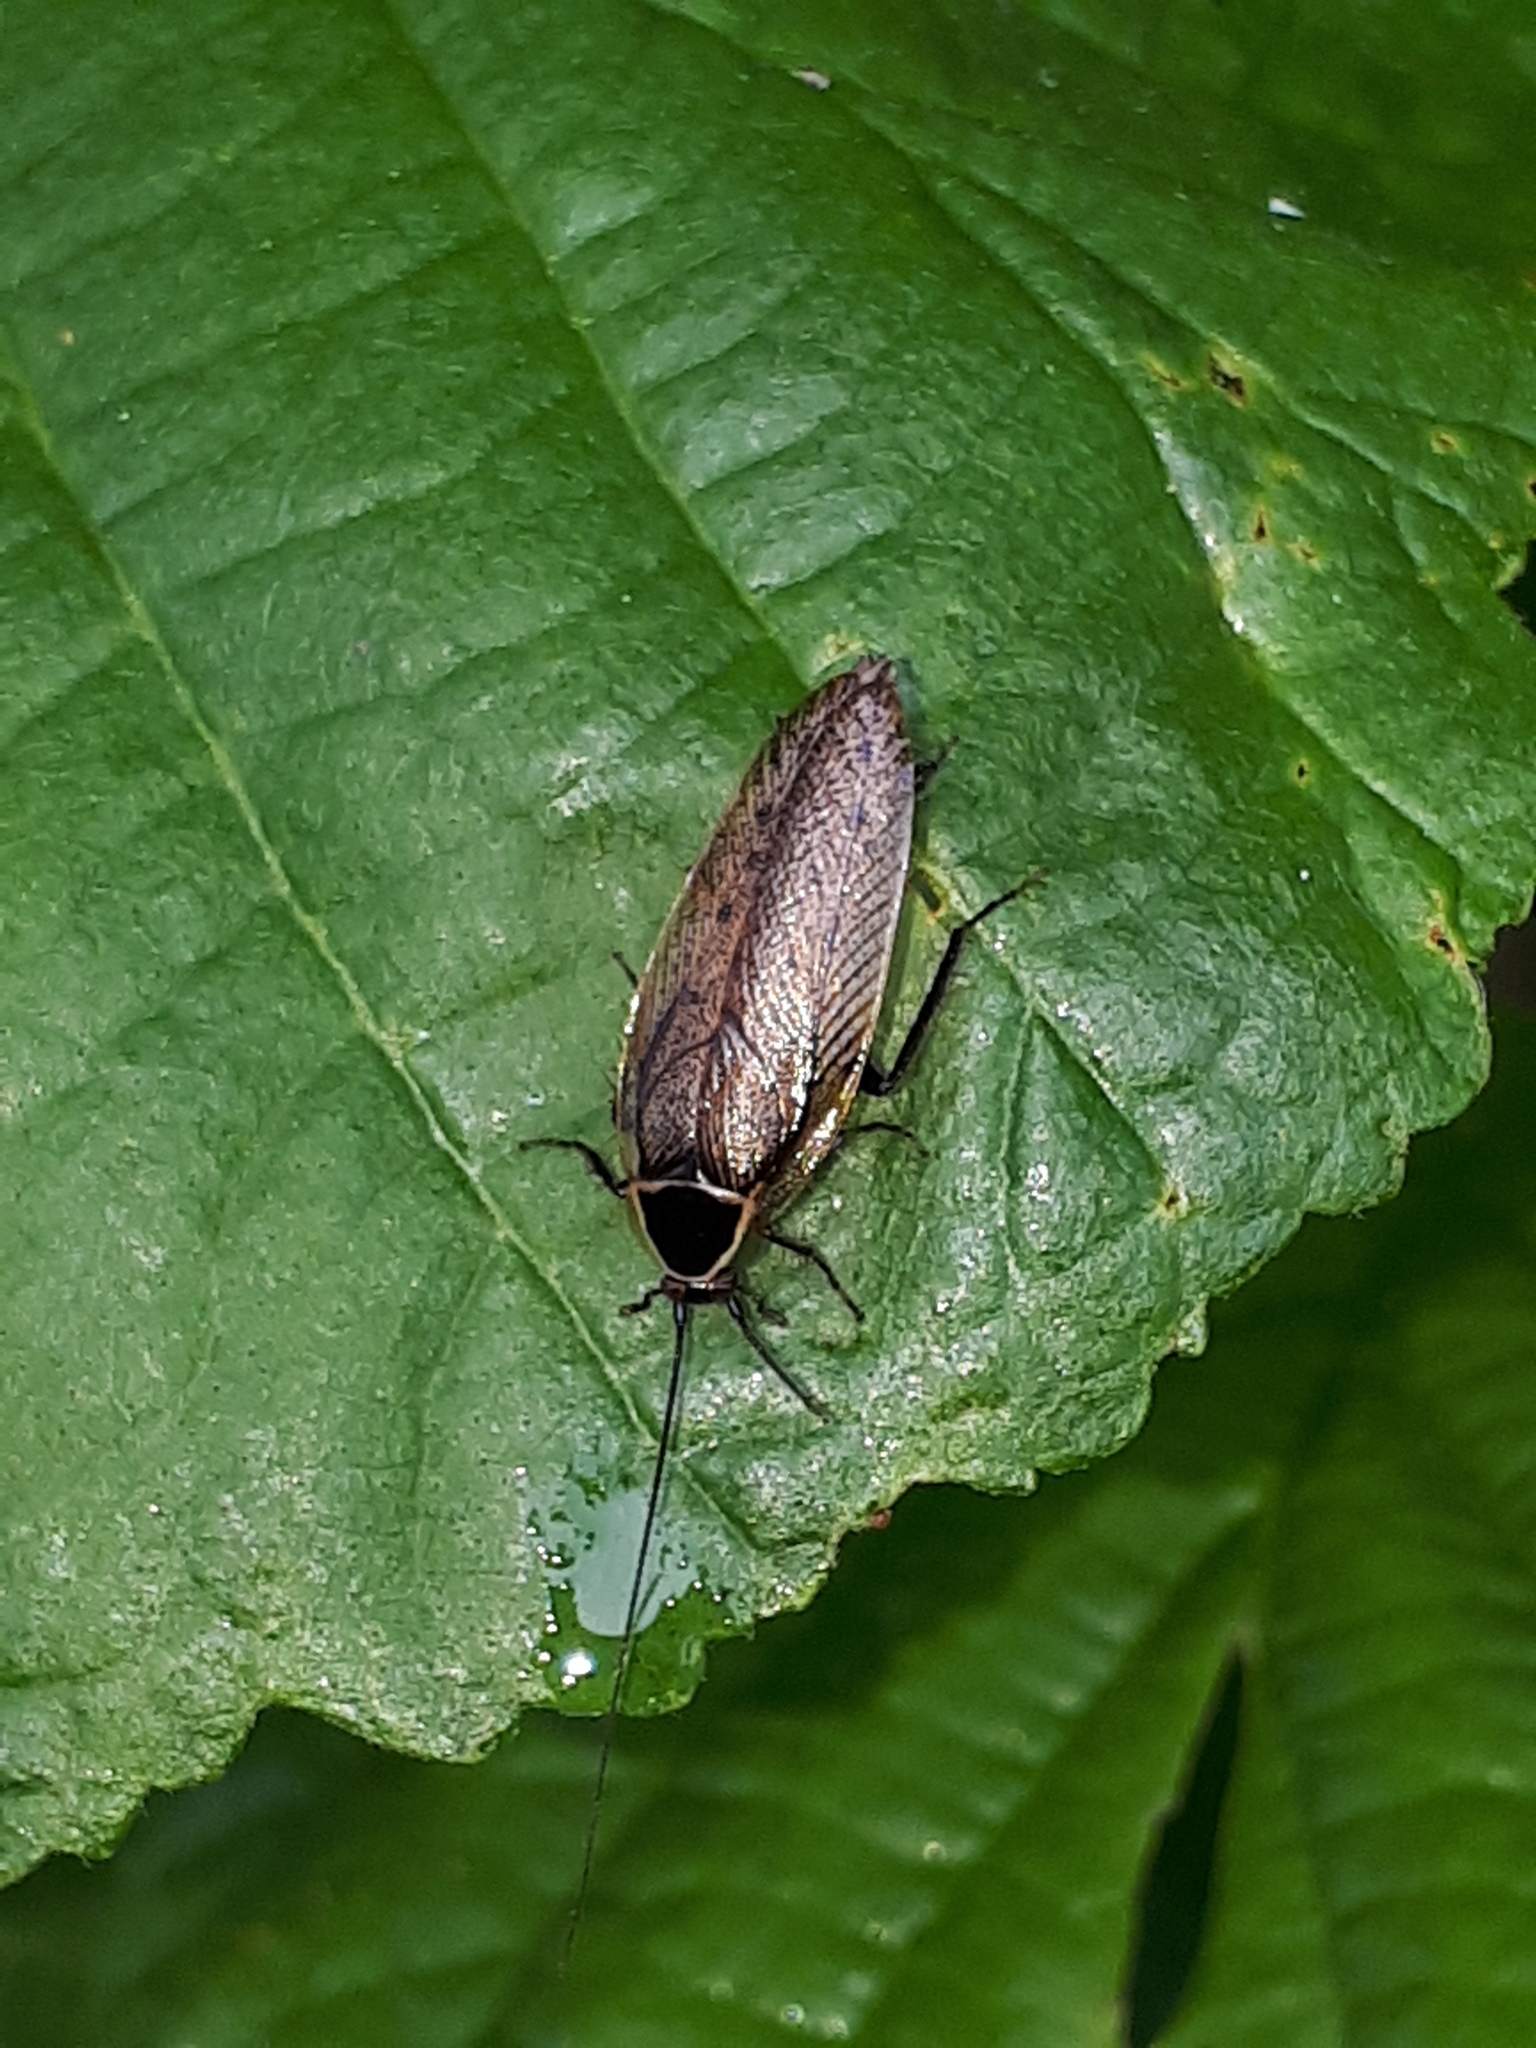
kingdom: Animalia
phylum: Arthropoda
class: Insecta
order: Blattodea
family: Ectobiidae
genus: Ectobius
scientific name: Ectobius sylvestris
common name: Forest cockroach
